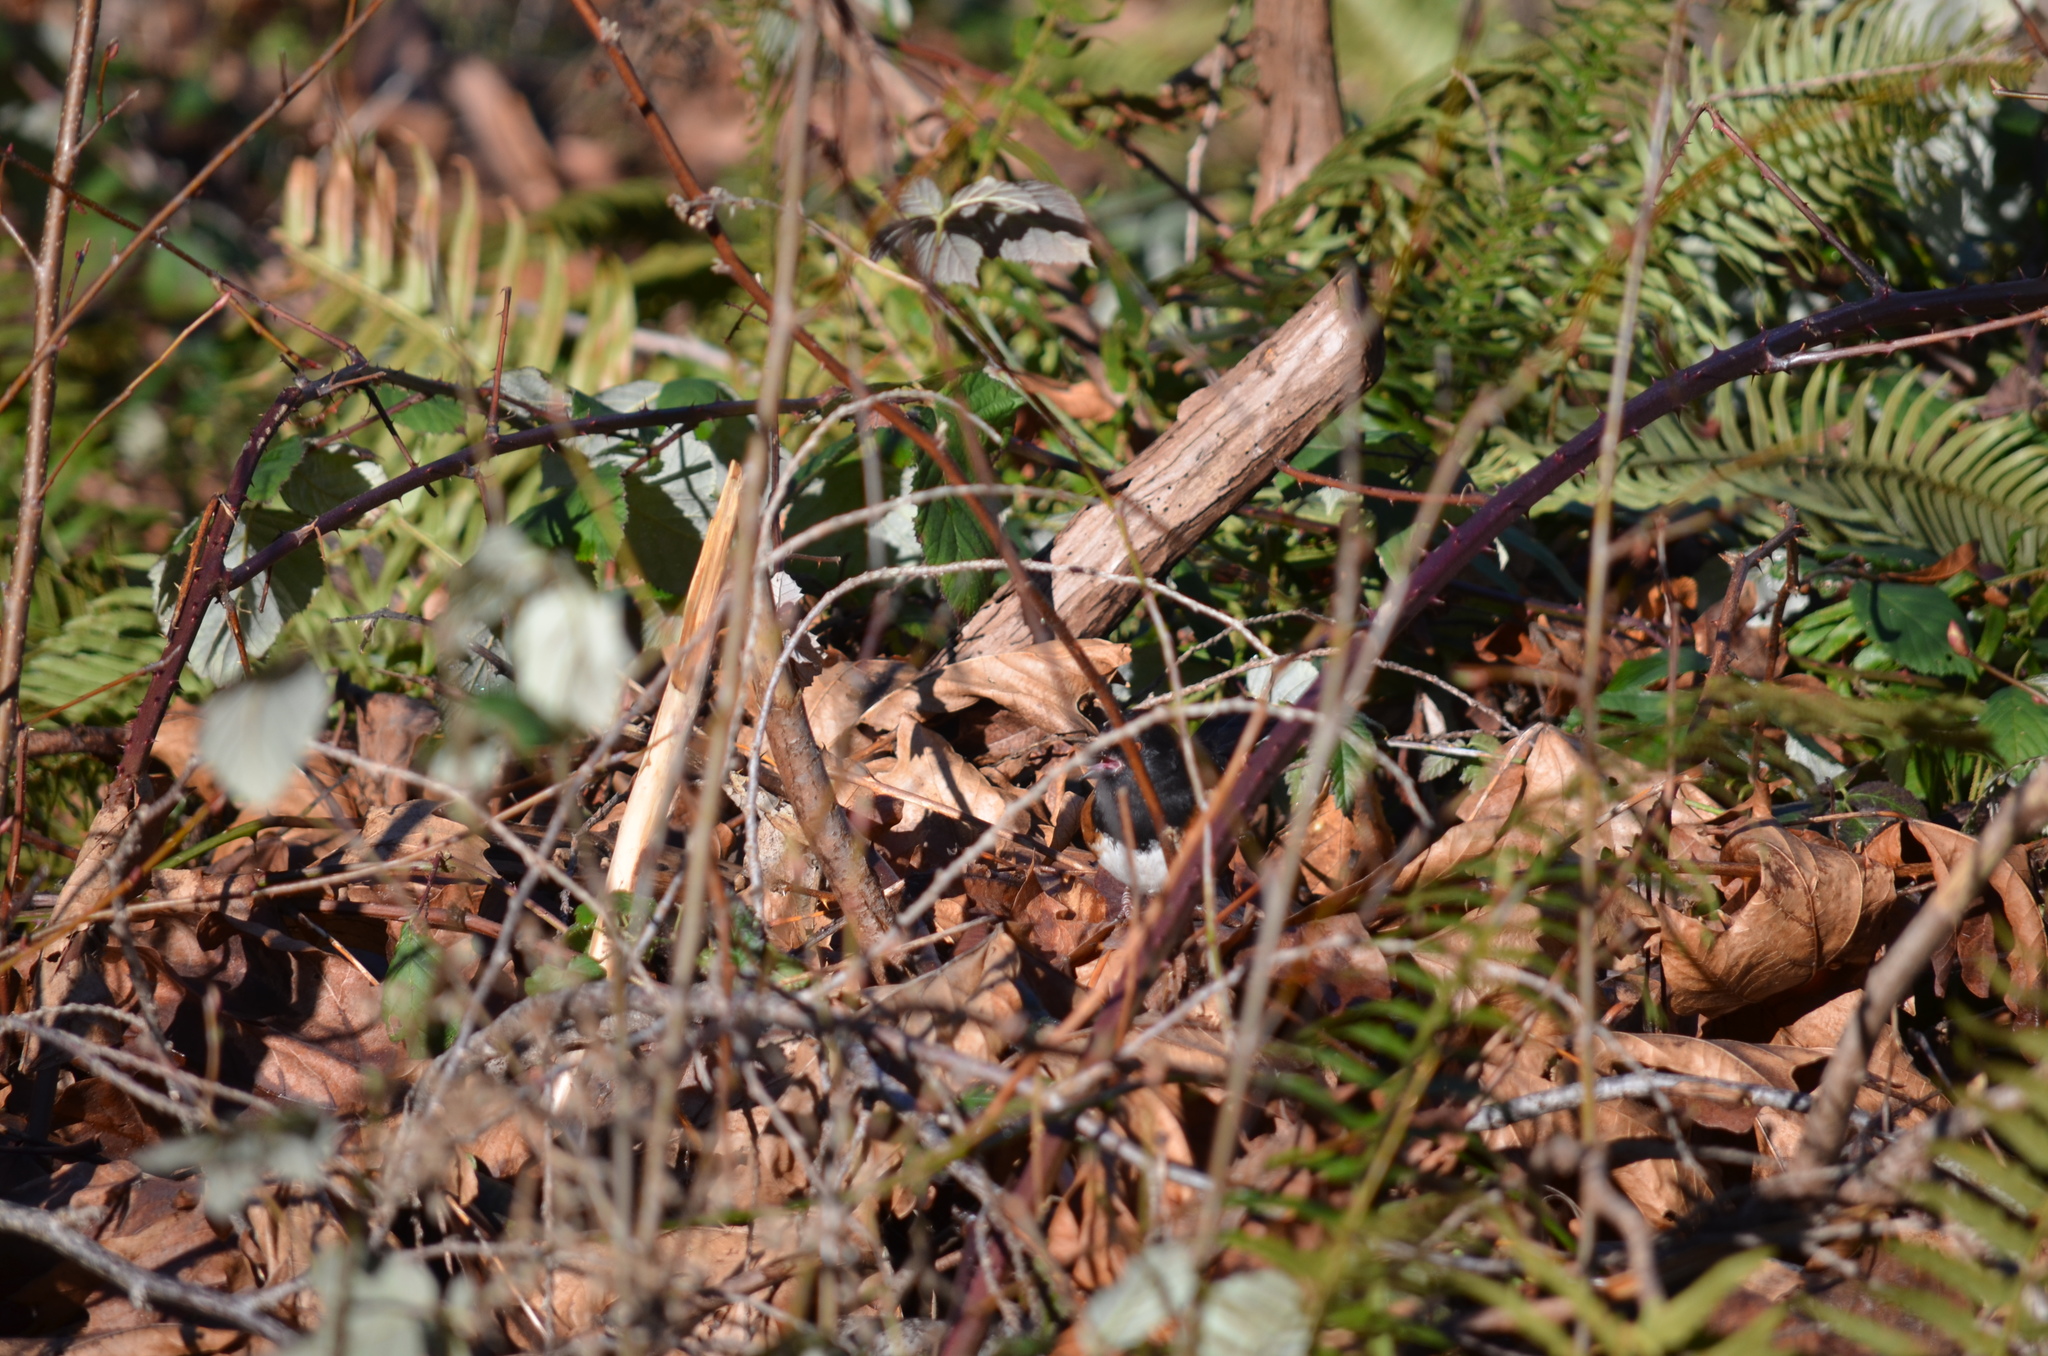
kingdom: Animalia
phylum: Chordata
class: Aves
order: Passeriformes
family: Passerellidae
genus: Pipilo
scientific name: Pipilo maculatus
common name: Spotted towhee
